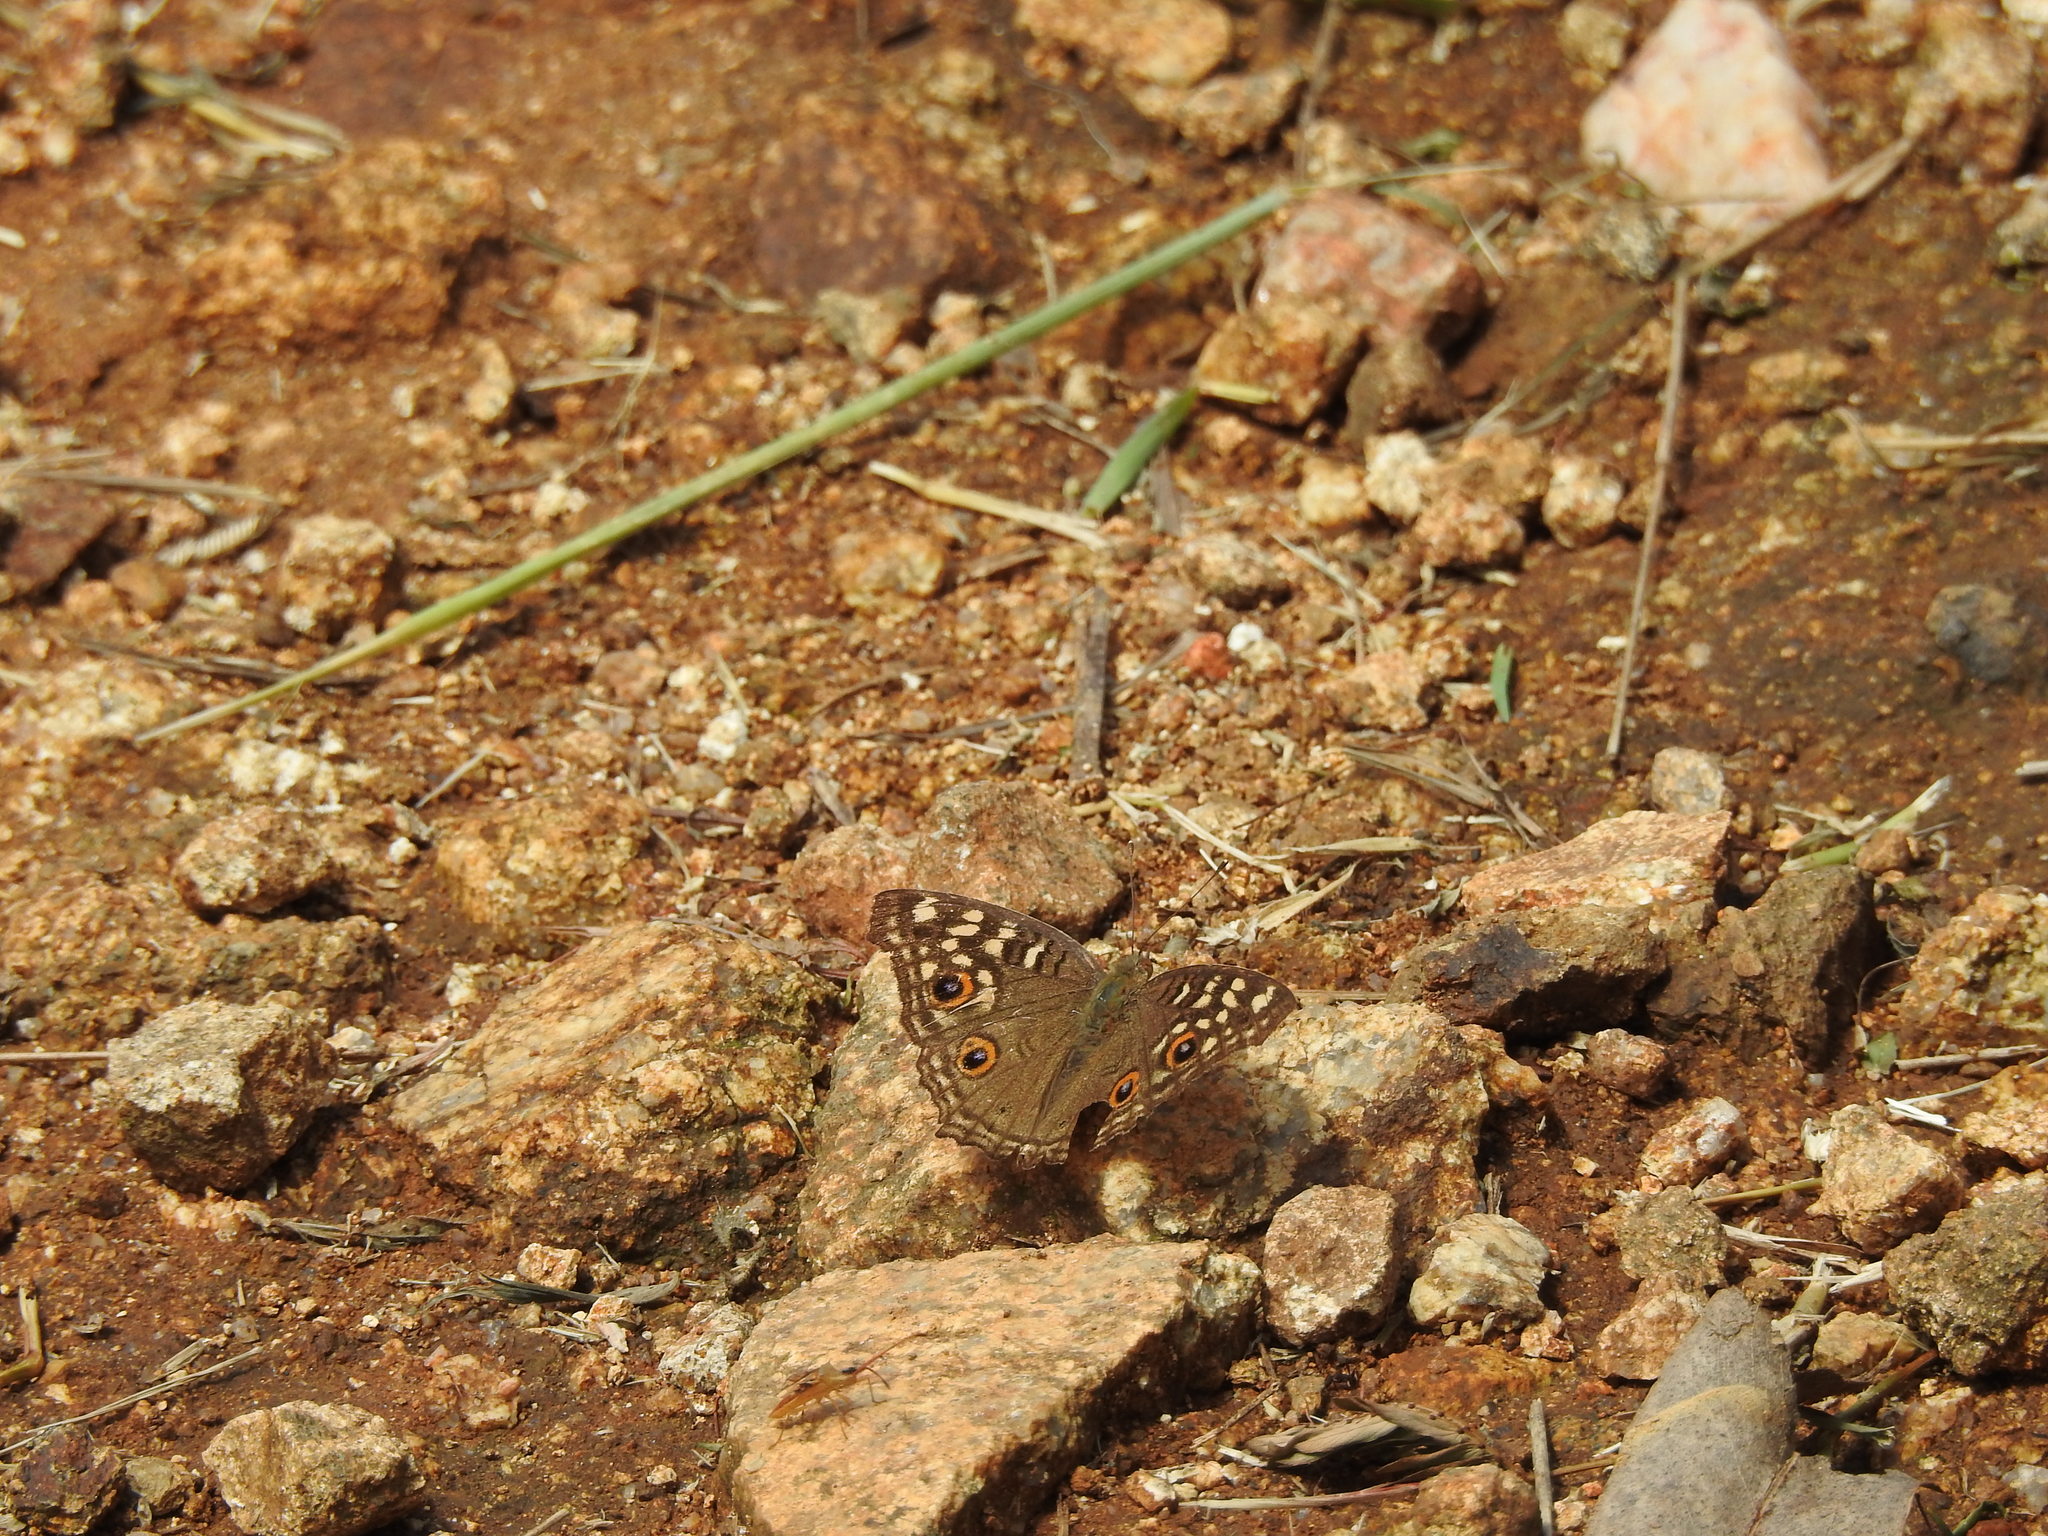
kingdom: Animalia
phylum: Arthropoda
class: Insecta
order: Lepidoptera
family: Nymphalidae
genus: Junonia
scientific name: Junonia lemonias
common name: Lemon pansy
